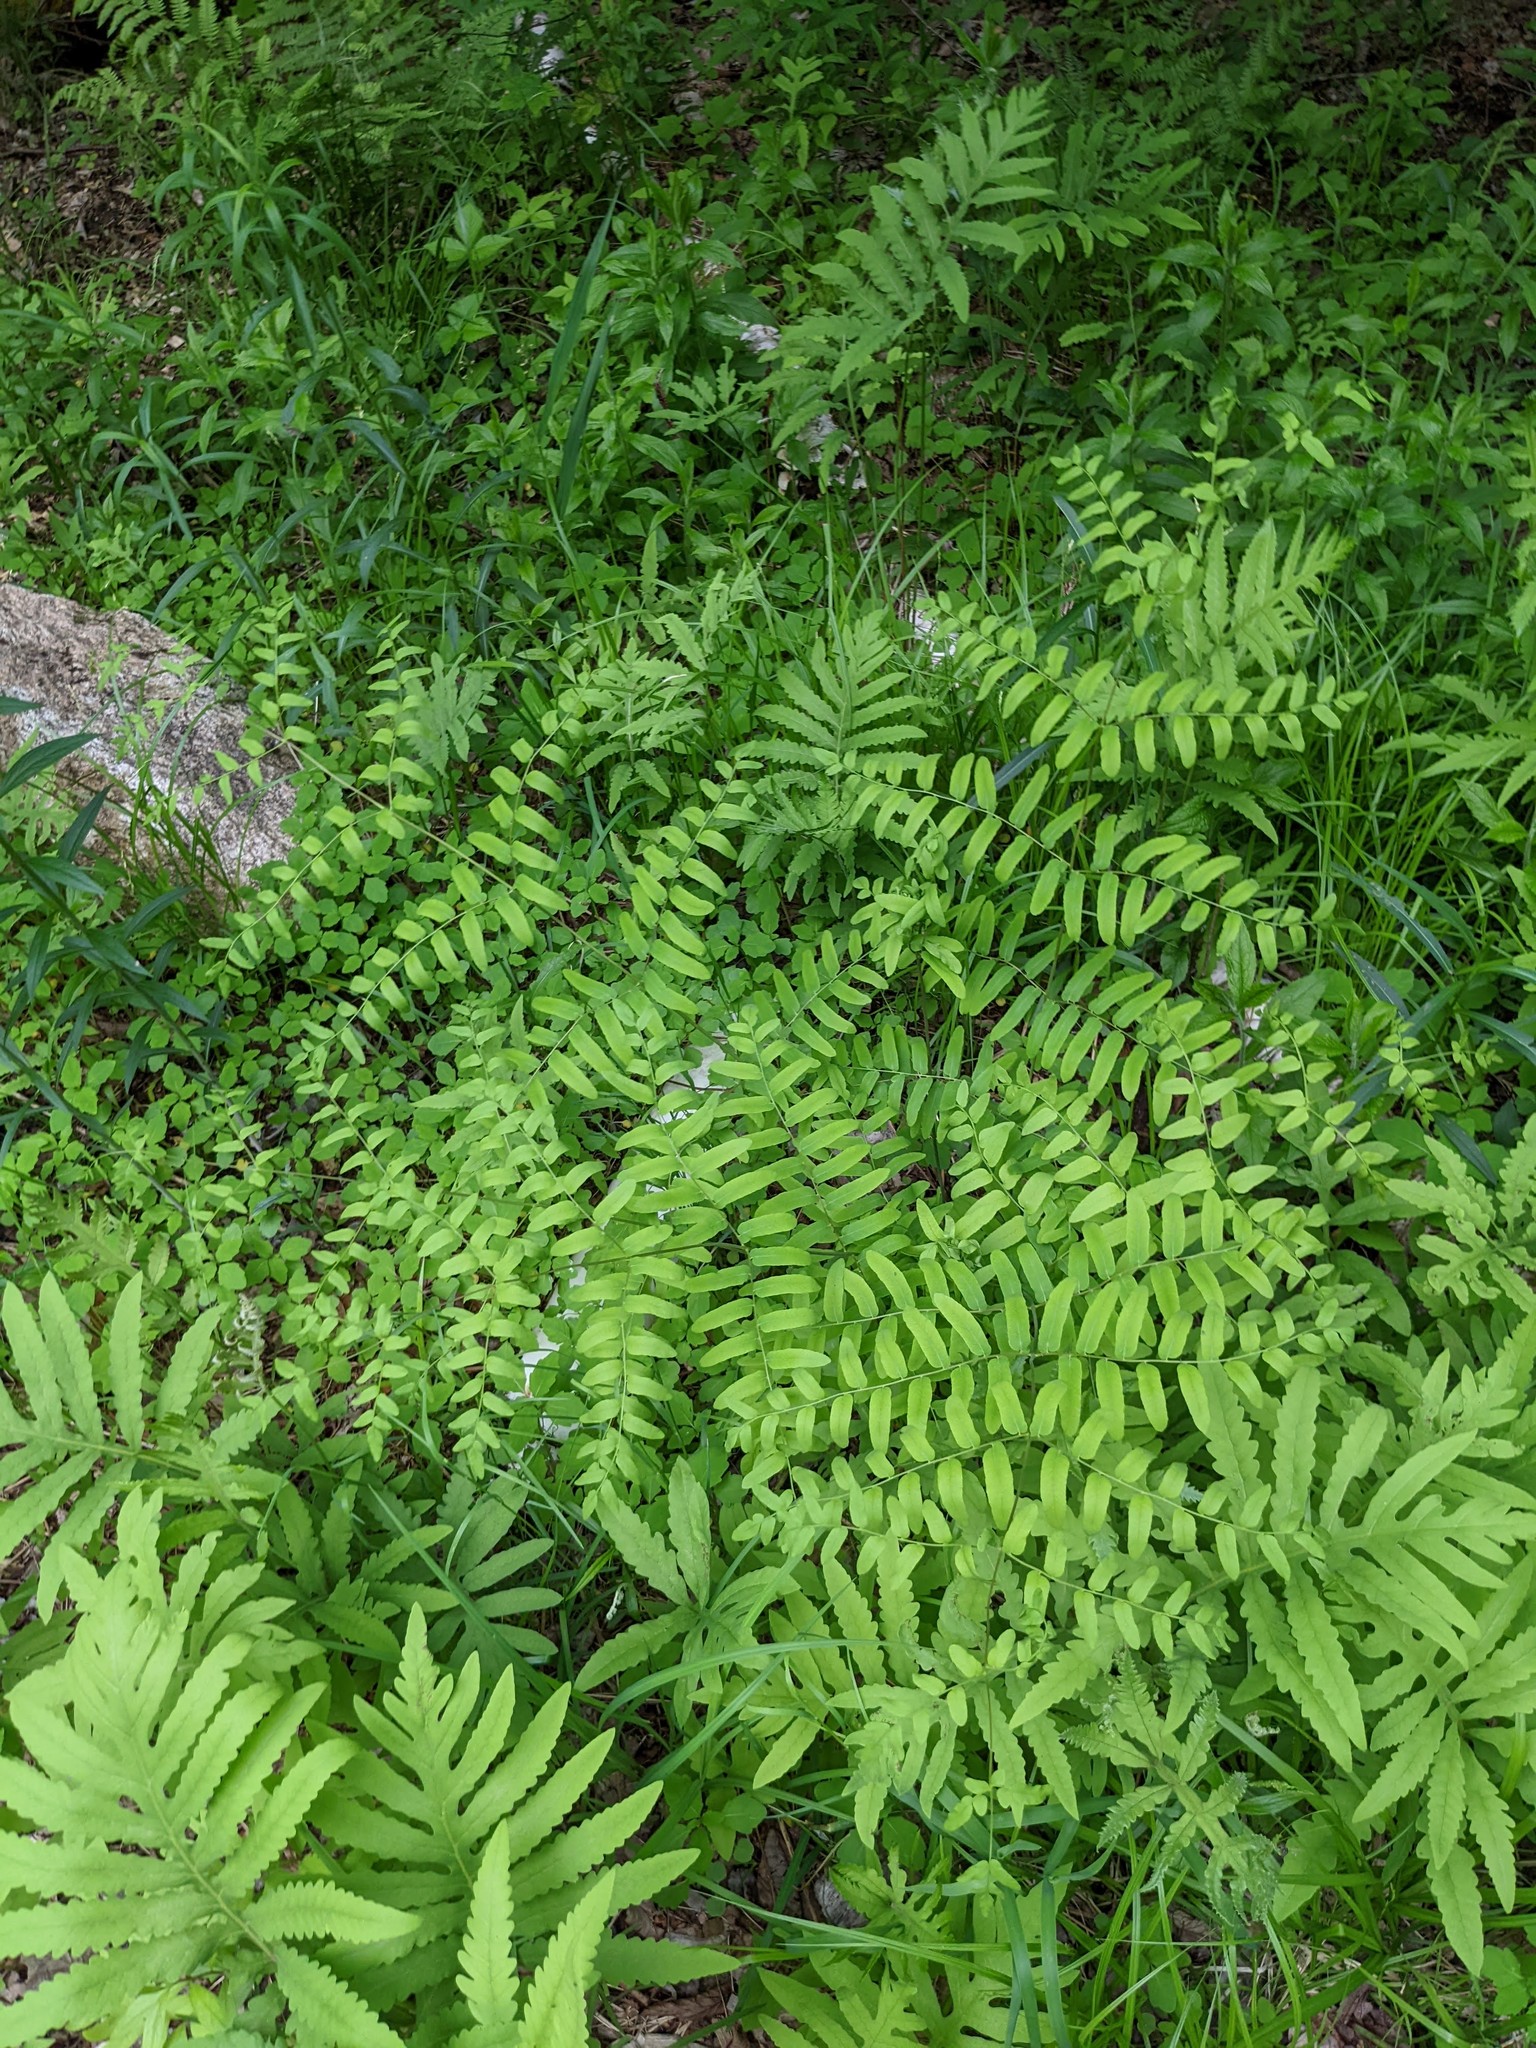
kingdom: Plantae
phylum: Tracheophyta
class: Polypodiopsida
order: Osmundales
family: Osmundaceae
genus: Osmunda
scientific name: Osmunda spectabilis
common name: American royal fern
